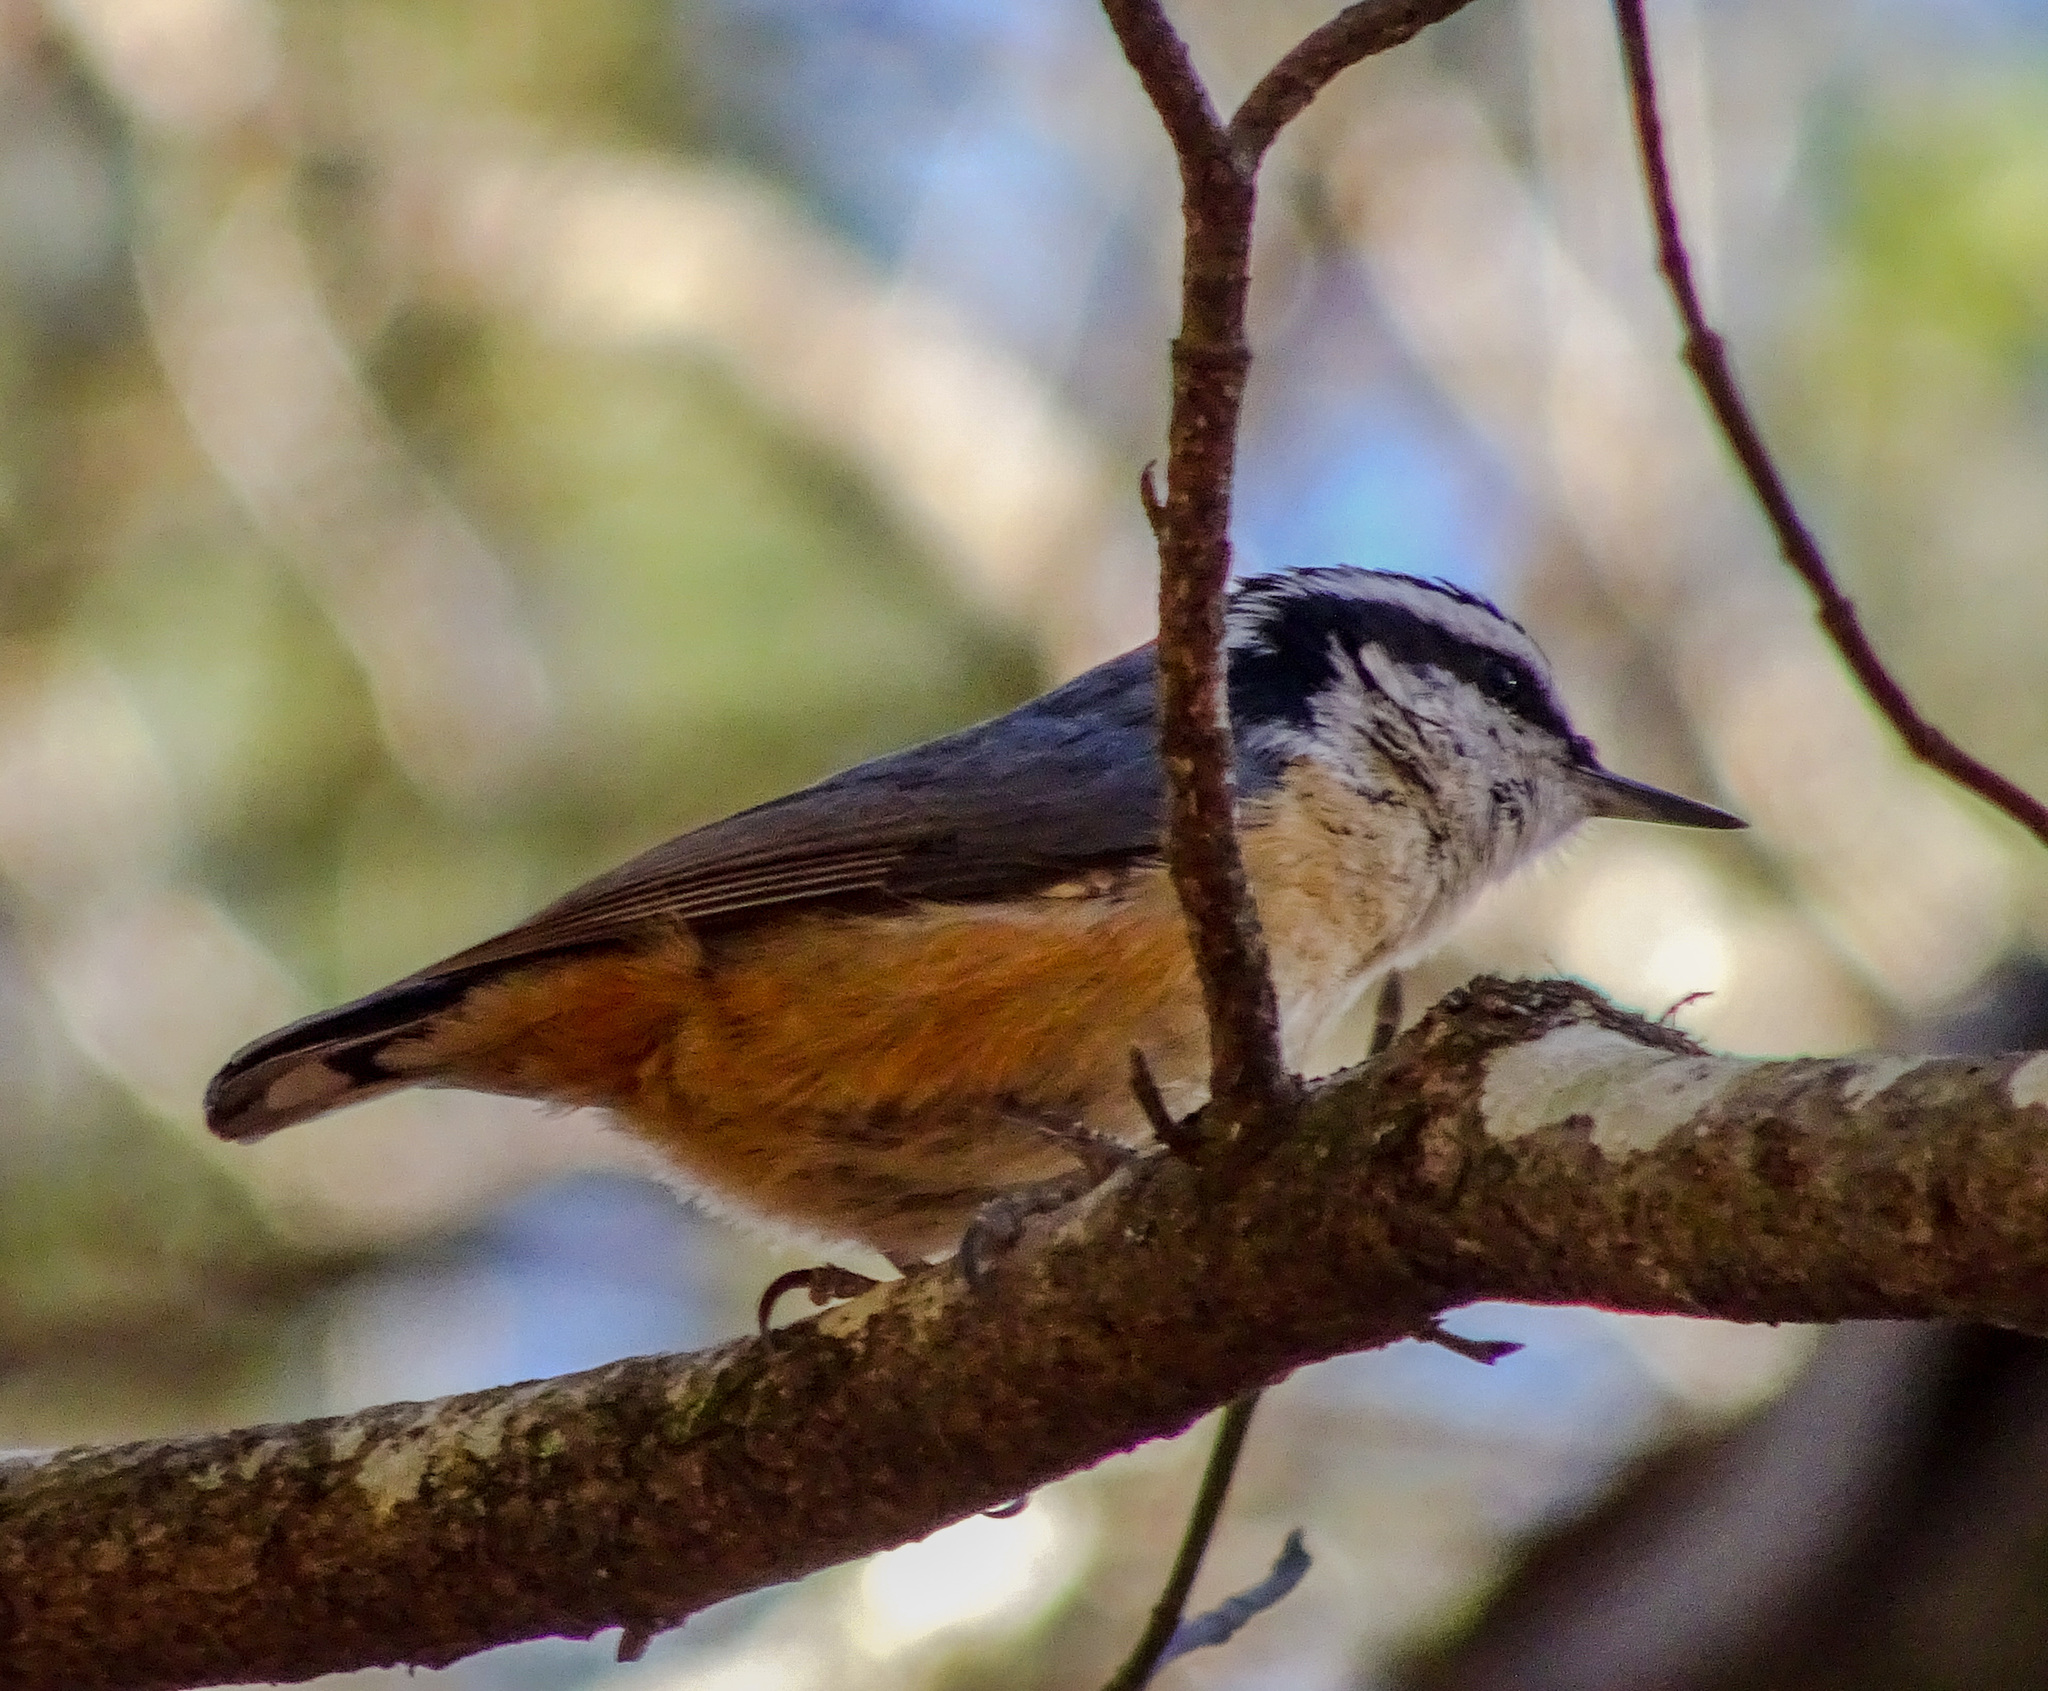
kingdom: Animalia
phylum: Chordata
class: Aves
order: Passeriformes
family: Sittidae
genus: Sitta
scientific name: Sitta canadensis
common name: Red-breasted nuthatch
